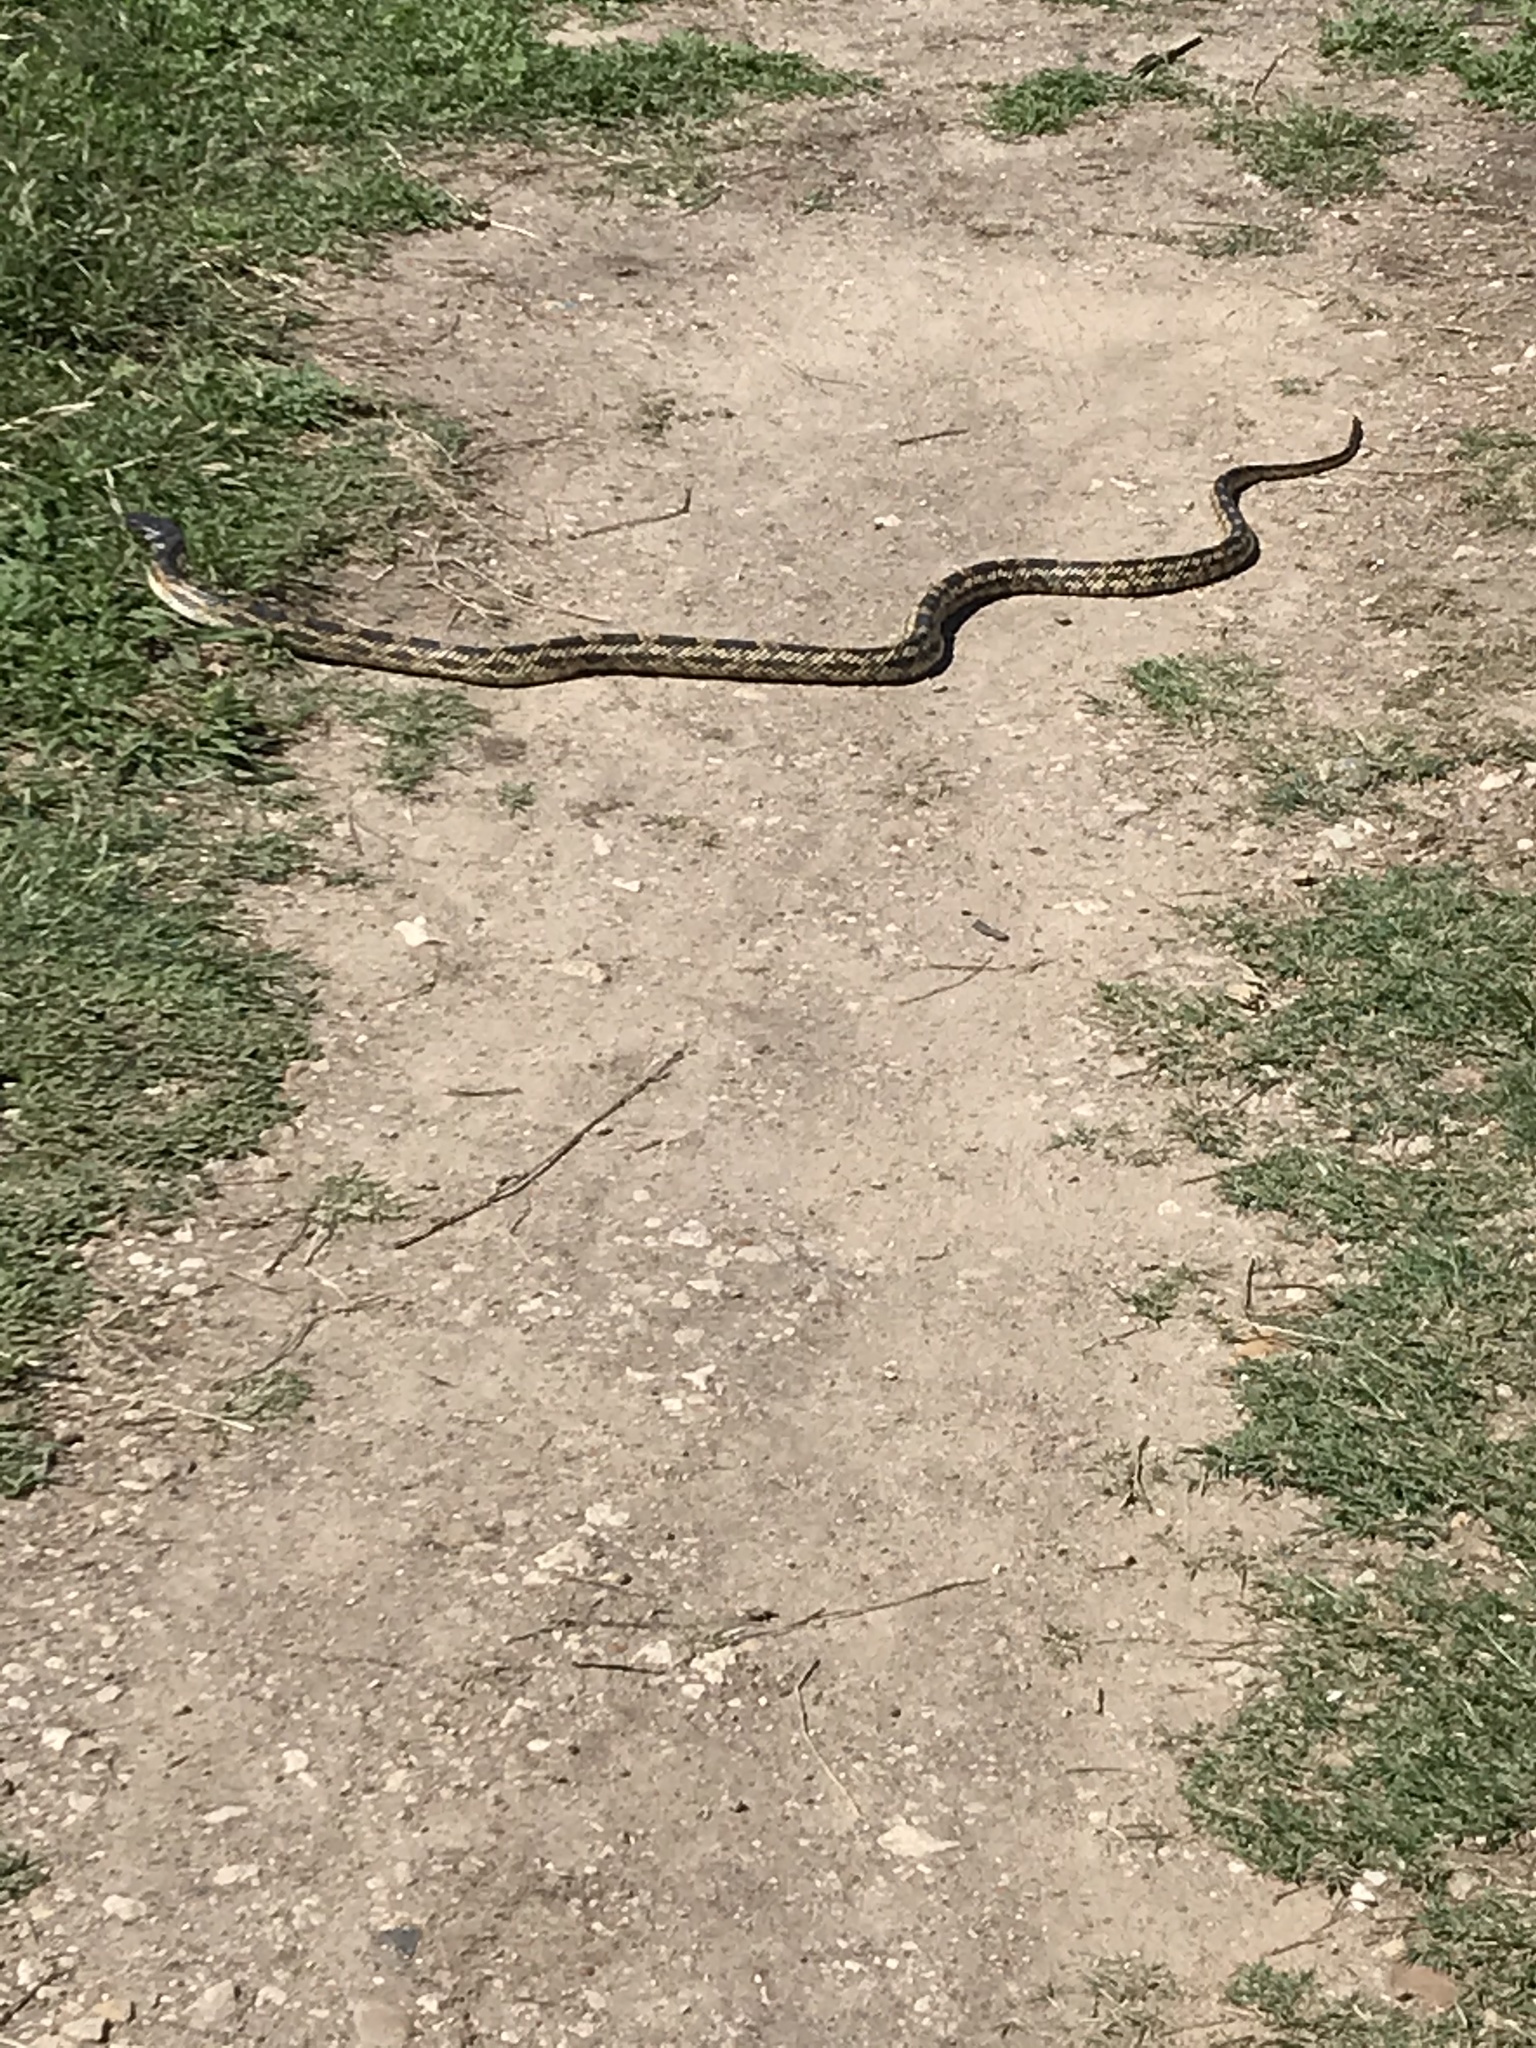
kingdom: Animalia
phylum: Chordata
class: Squamata
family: Colubridae
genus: Pantherophis
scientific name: Pantherophis obsoletus
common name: Black rat snake
